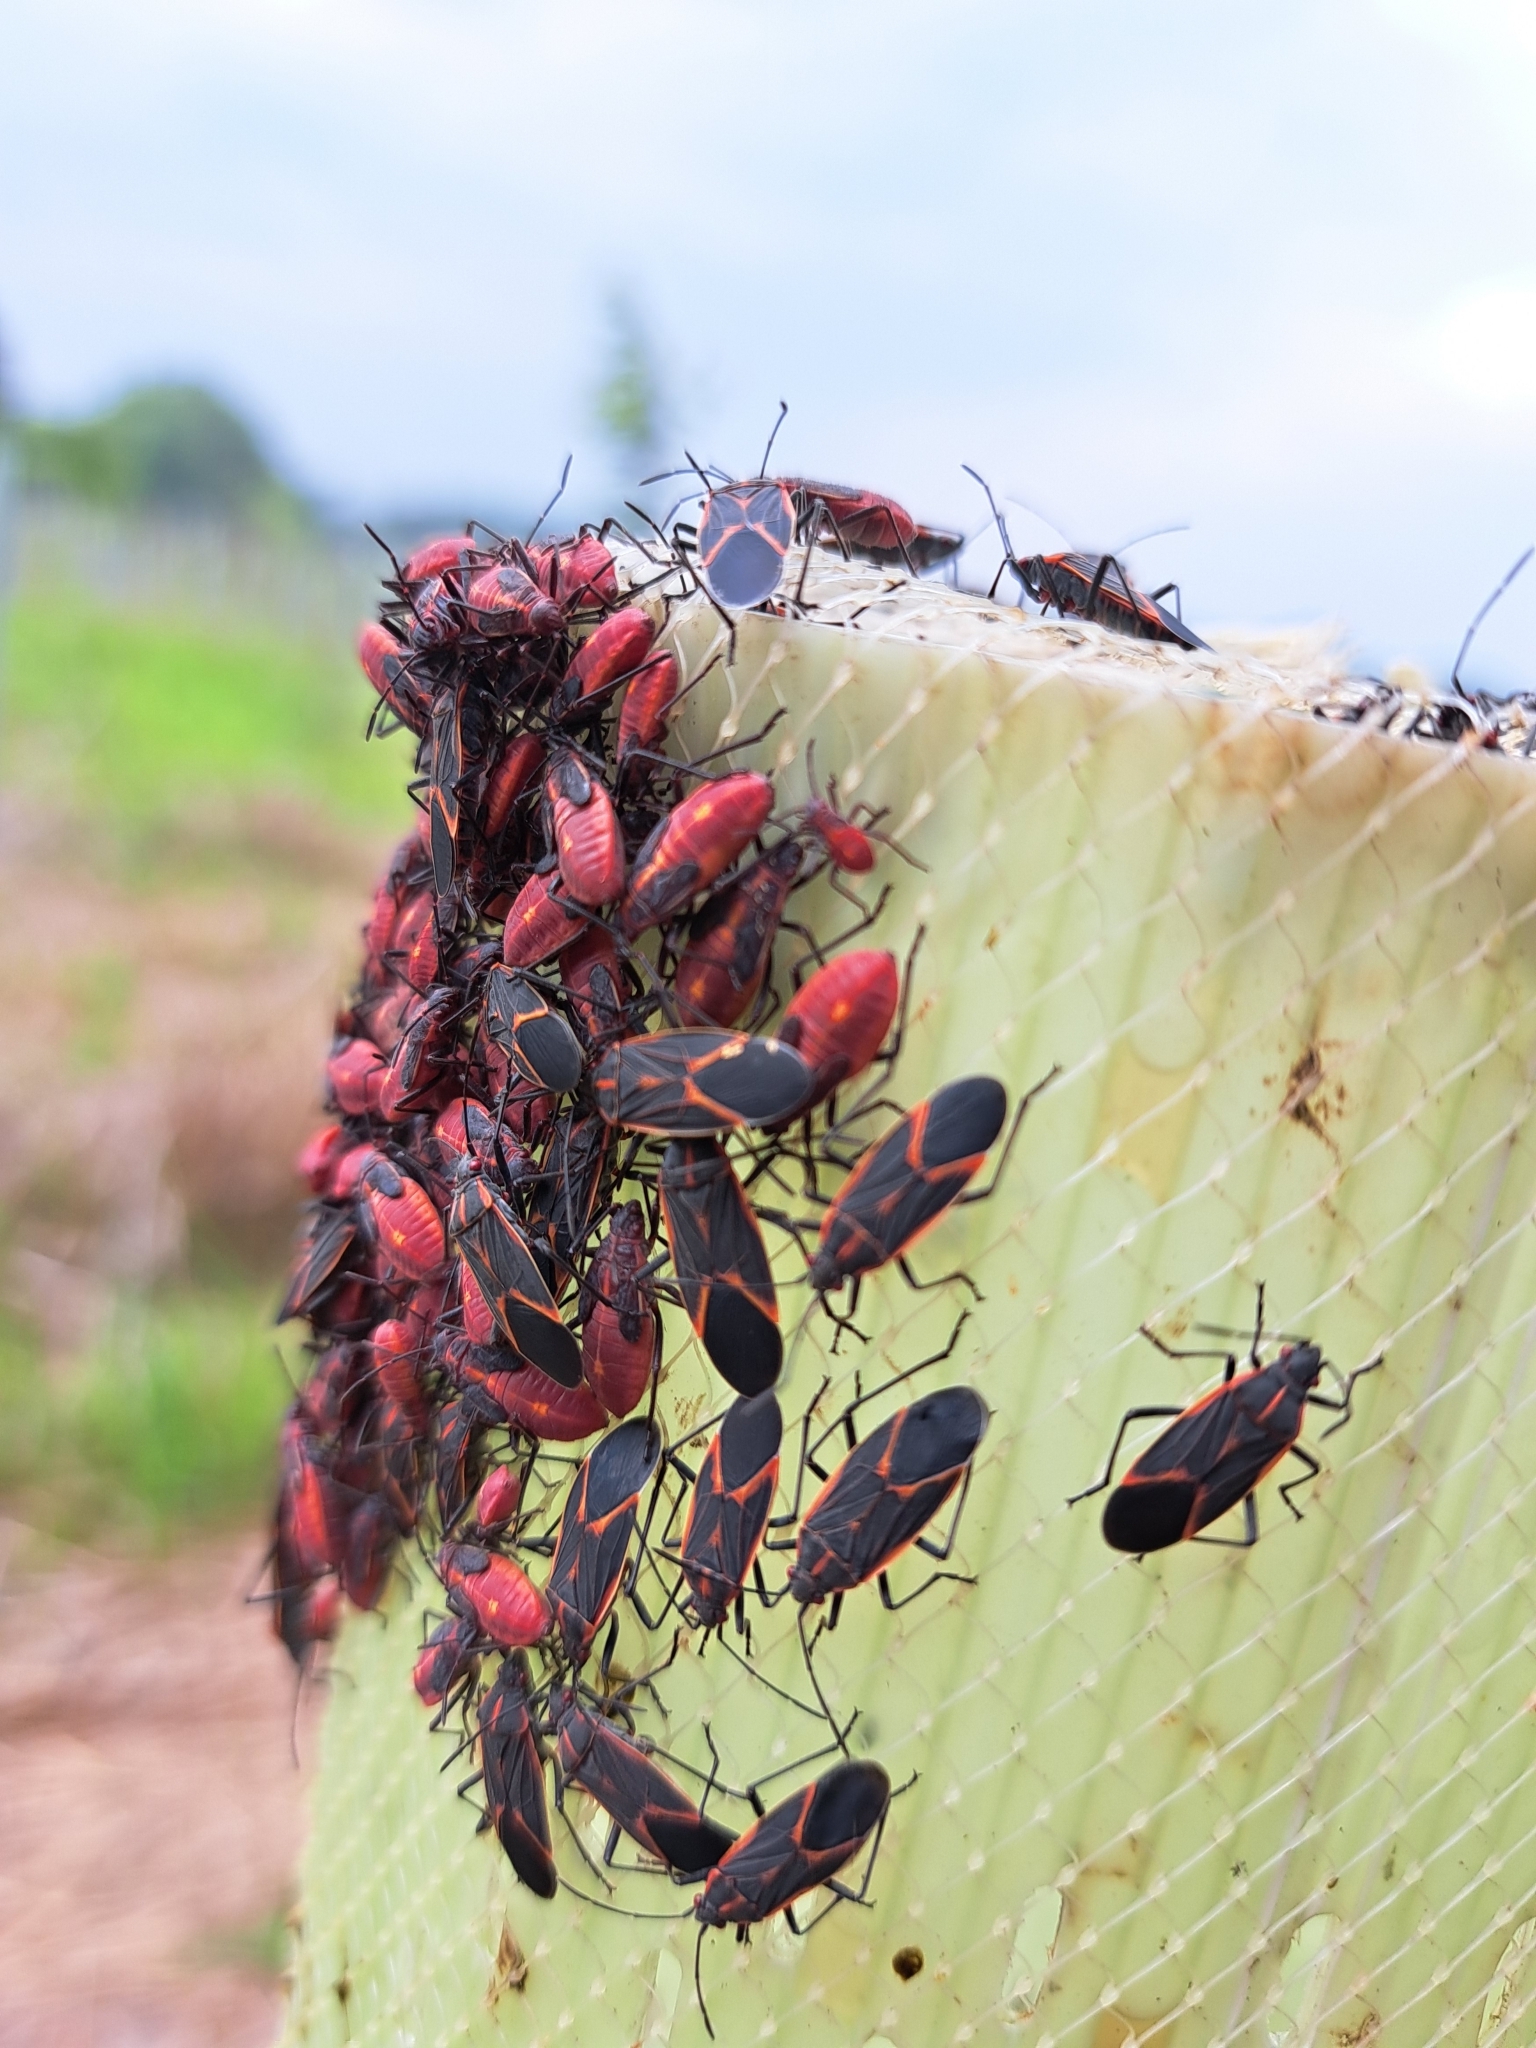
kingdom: Animalia
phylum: Arthropoda
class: Insecta
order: Hemiptera
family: Rhopalidae
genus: Boisea
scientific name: Boisea trivittata
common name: Boxelder bug
